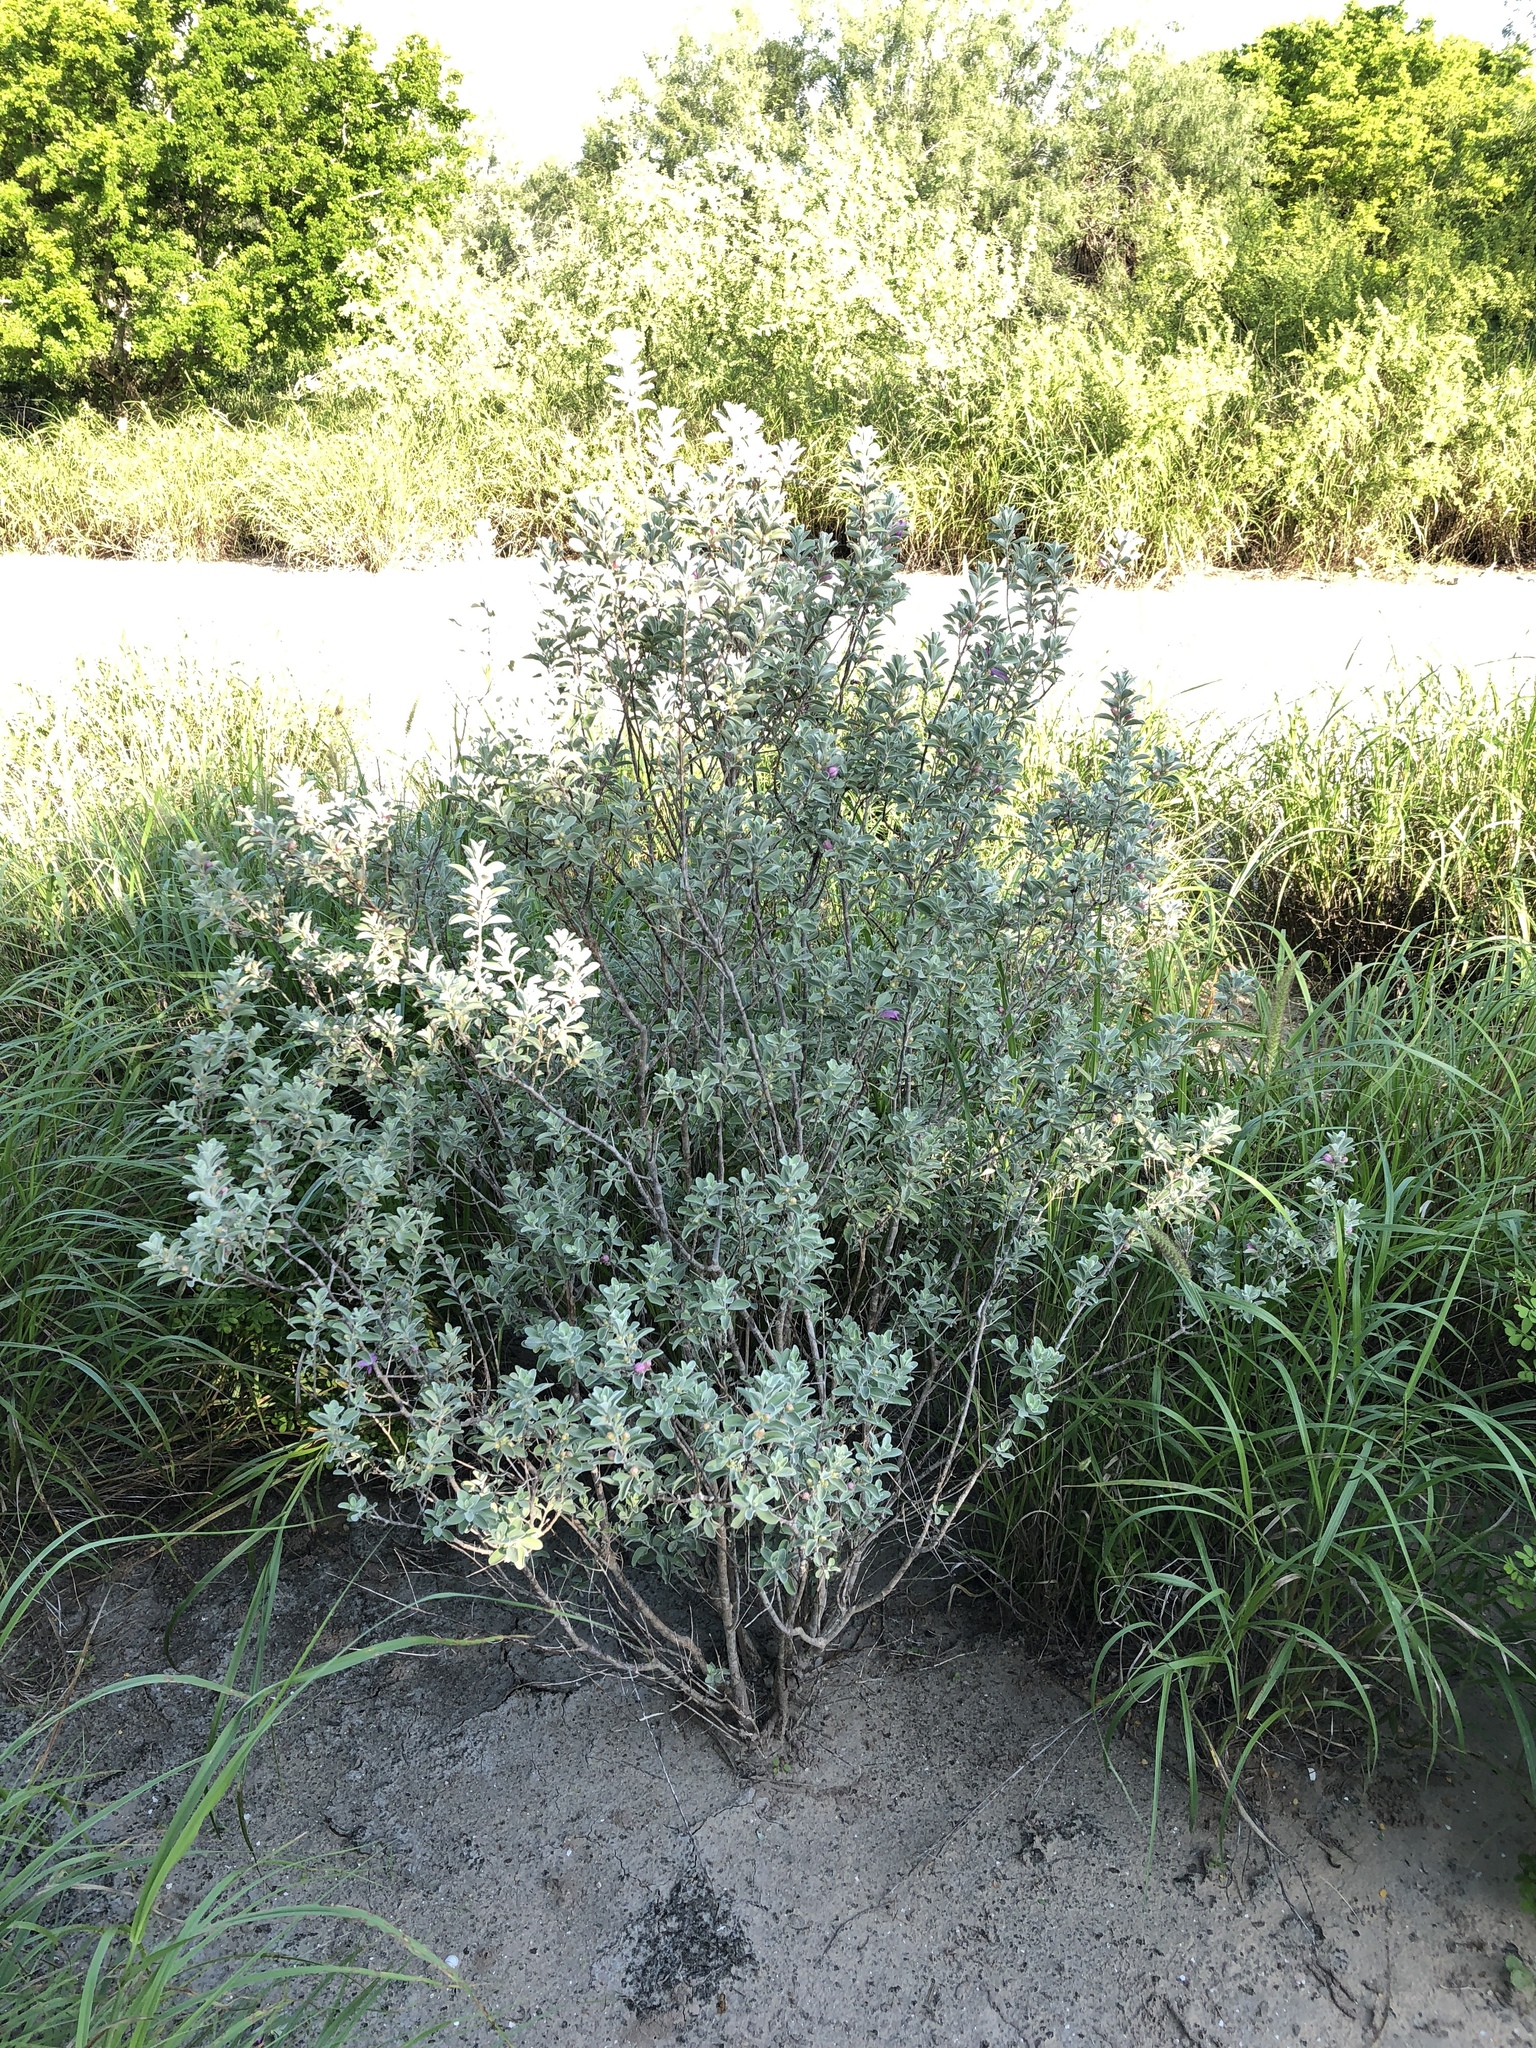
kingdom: Plantae
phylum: Tracheophyta
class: Magnoliopsida
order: Lamiales
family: Scrophulariaceae
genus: Leucophyllum
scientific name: Leucophyllum frutescens
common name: Texas silverleaf
